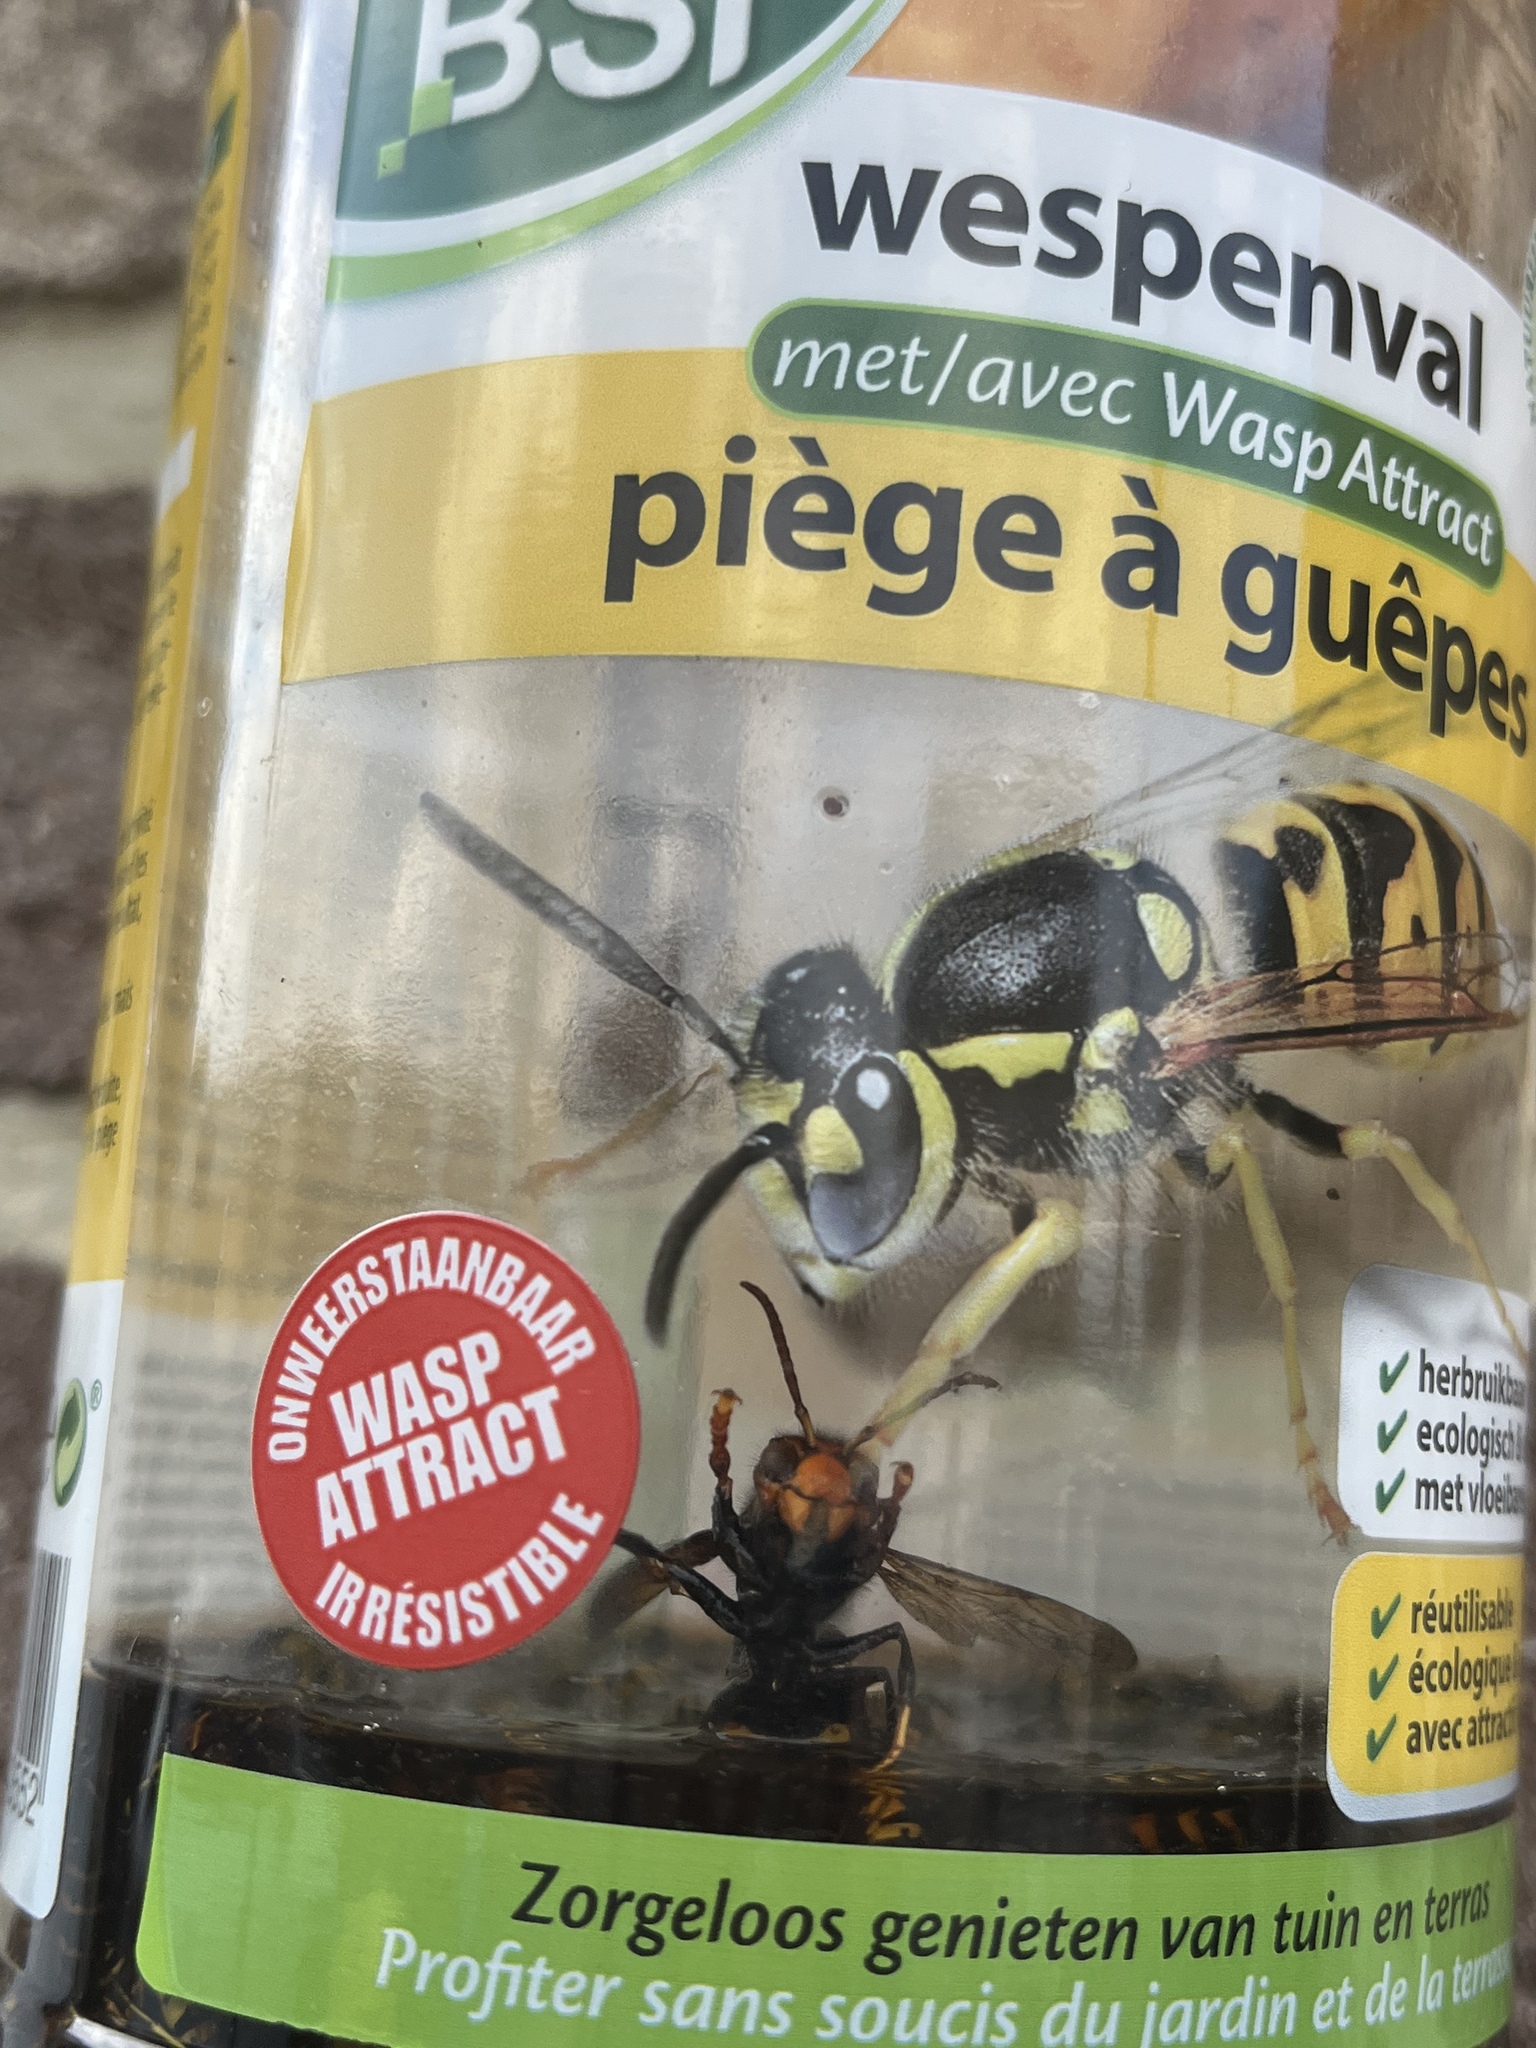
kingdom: Animalia
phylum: Arthropoda
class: Insecta
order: Hymenoptera
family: Vespidae
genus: Vespa
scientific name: Vespa velutina
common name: Asian hornet
